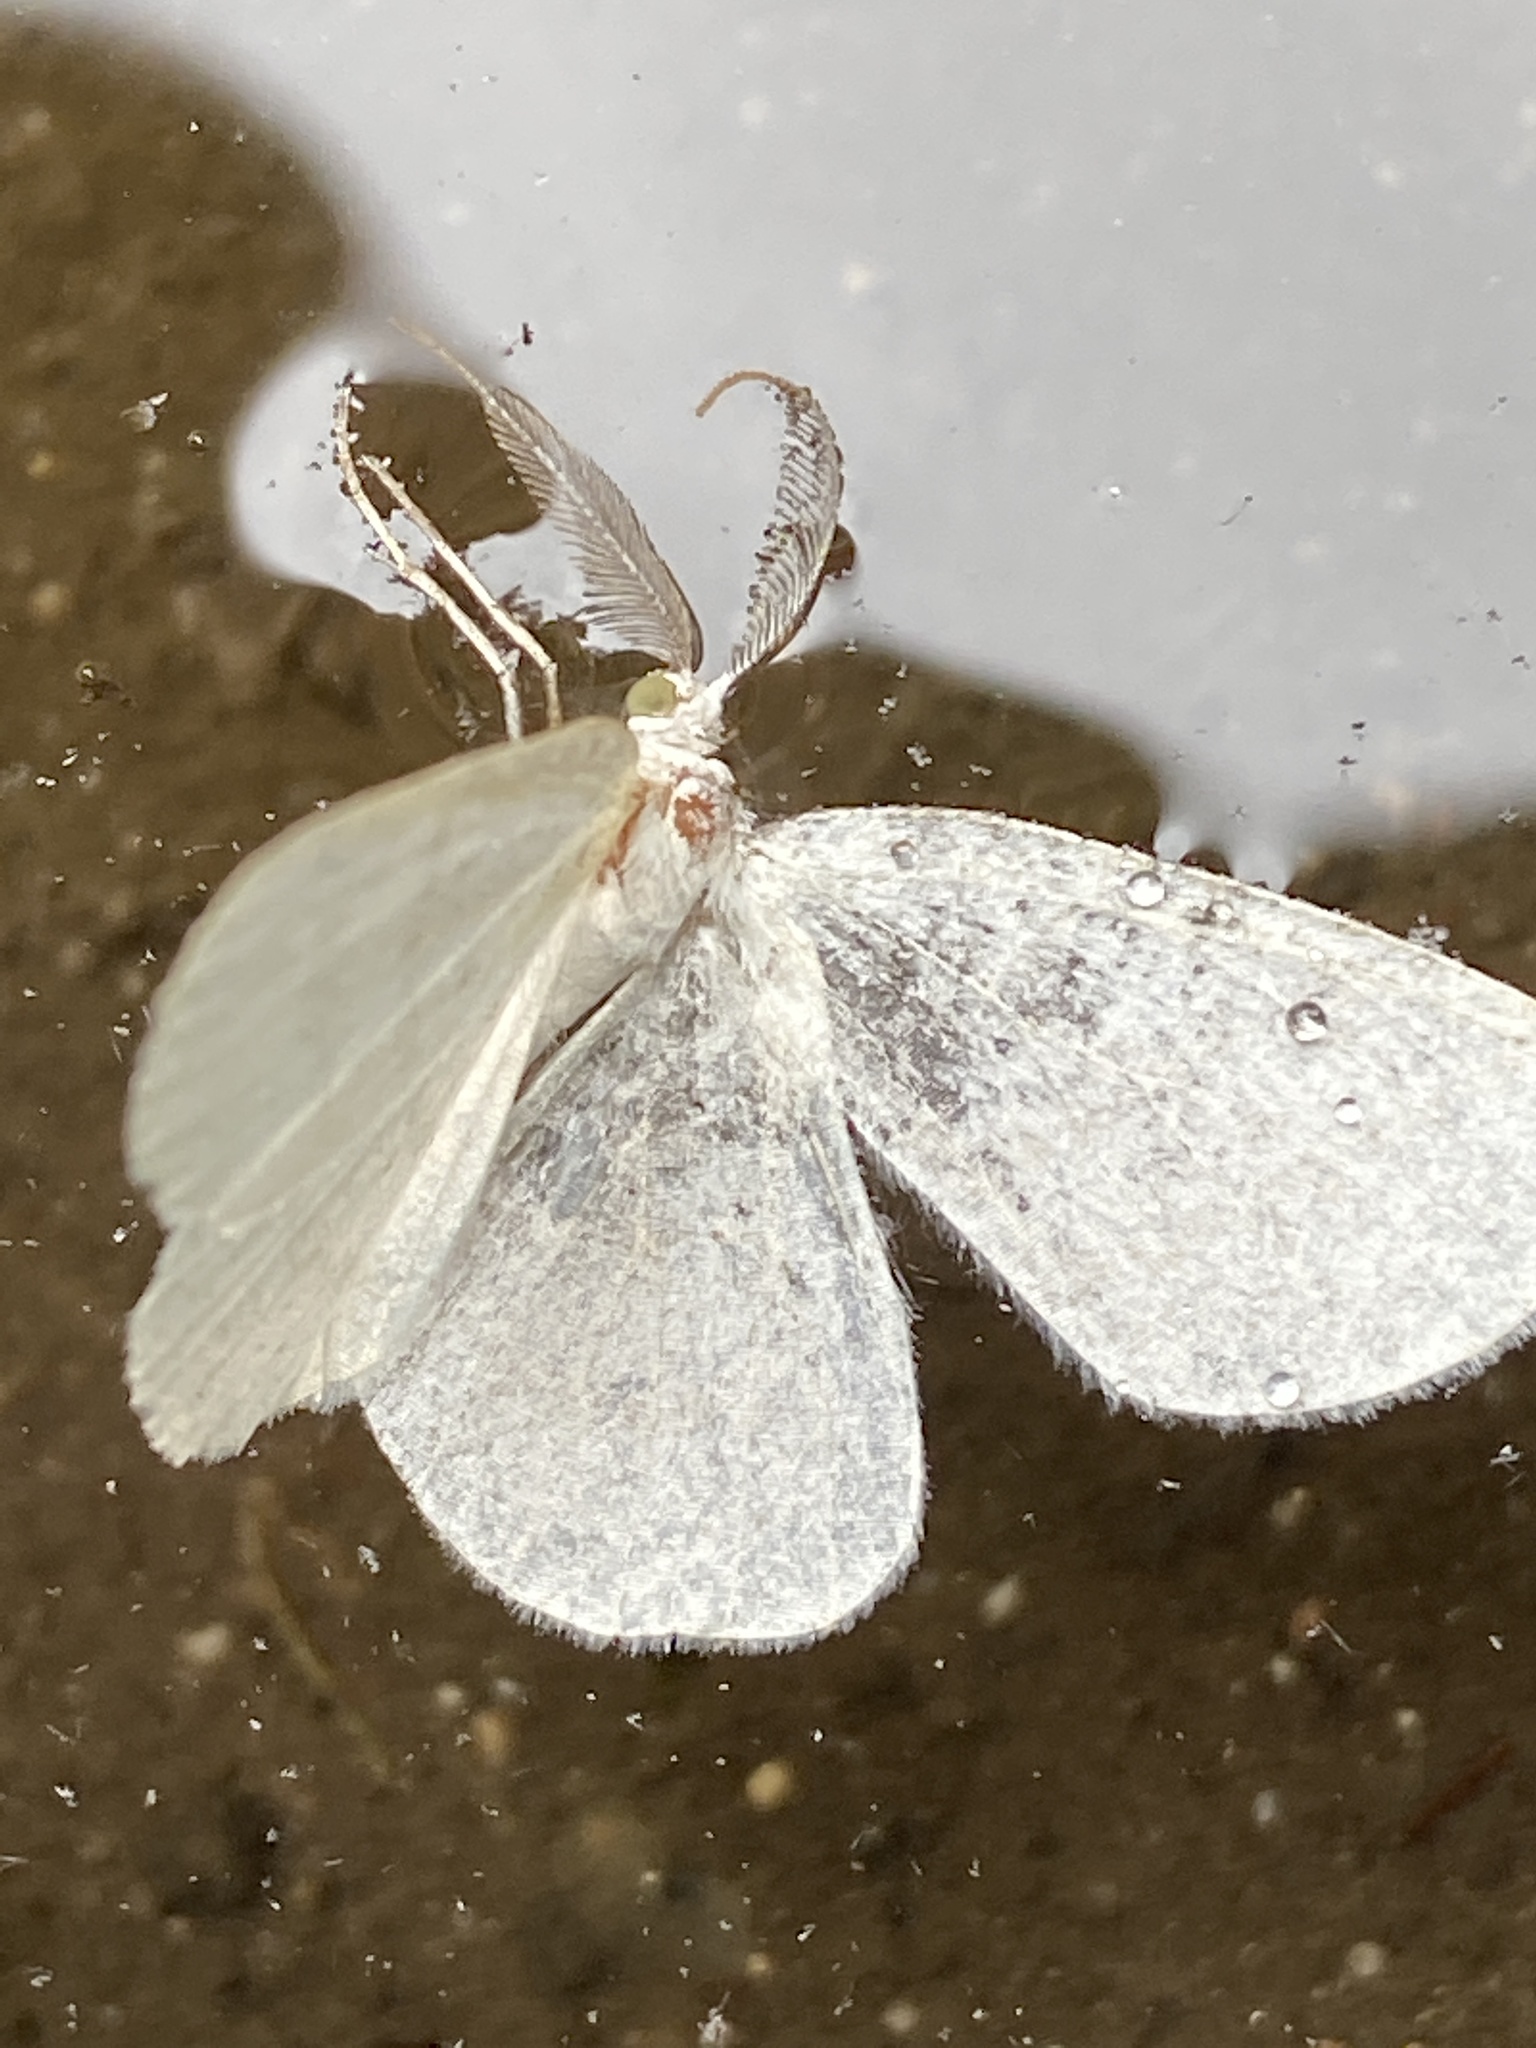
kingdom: Animalia
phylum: Arthropoda
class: Insecta
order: Lepidoptera
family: Geometridae
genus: Cabera
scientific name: Cabera pusaria
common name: Common white wave
